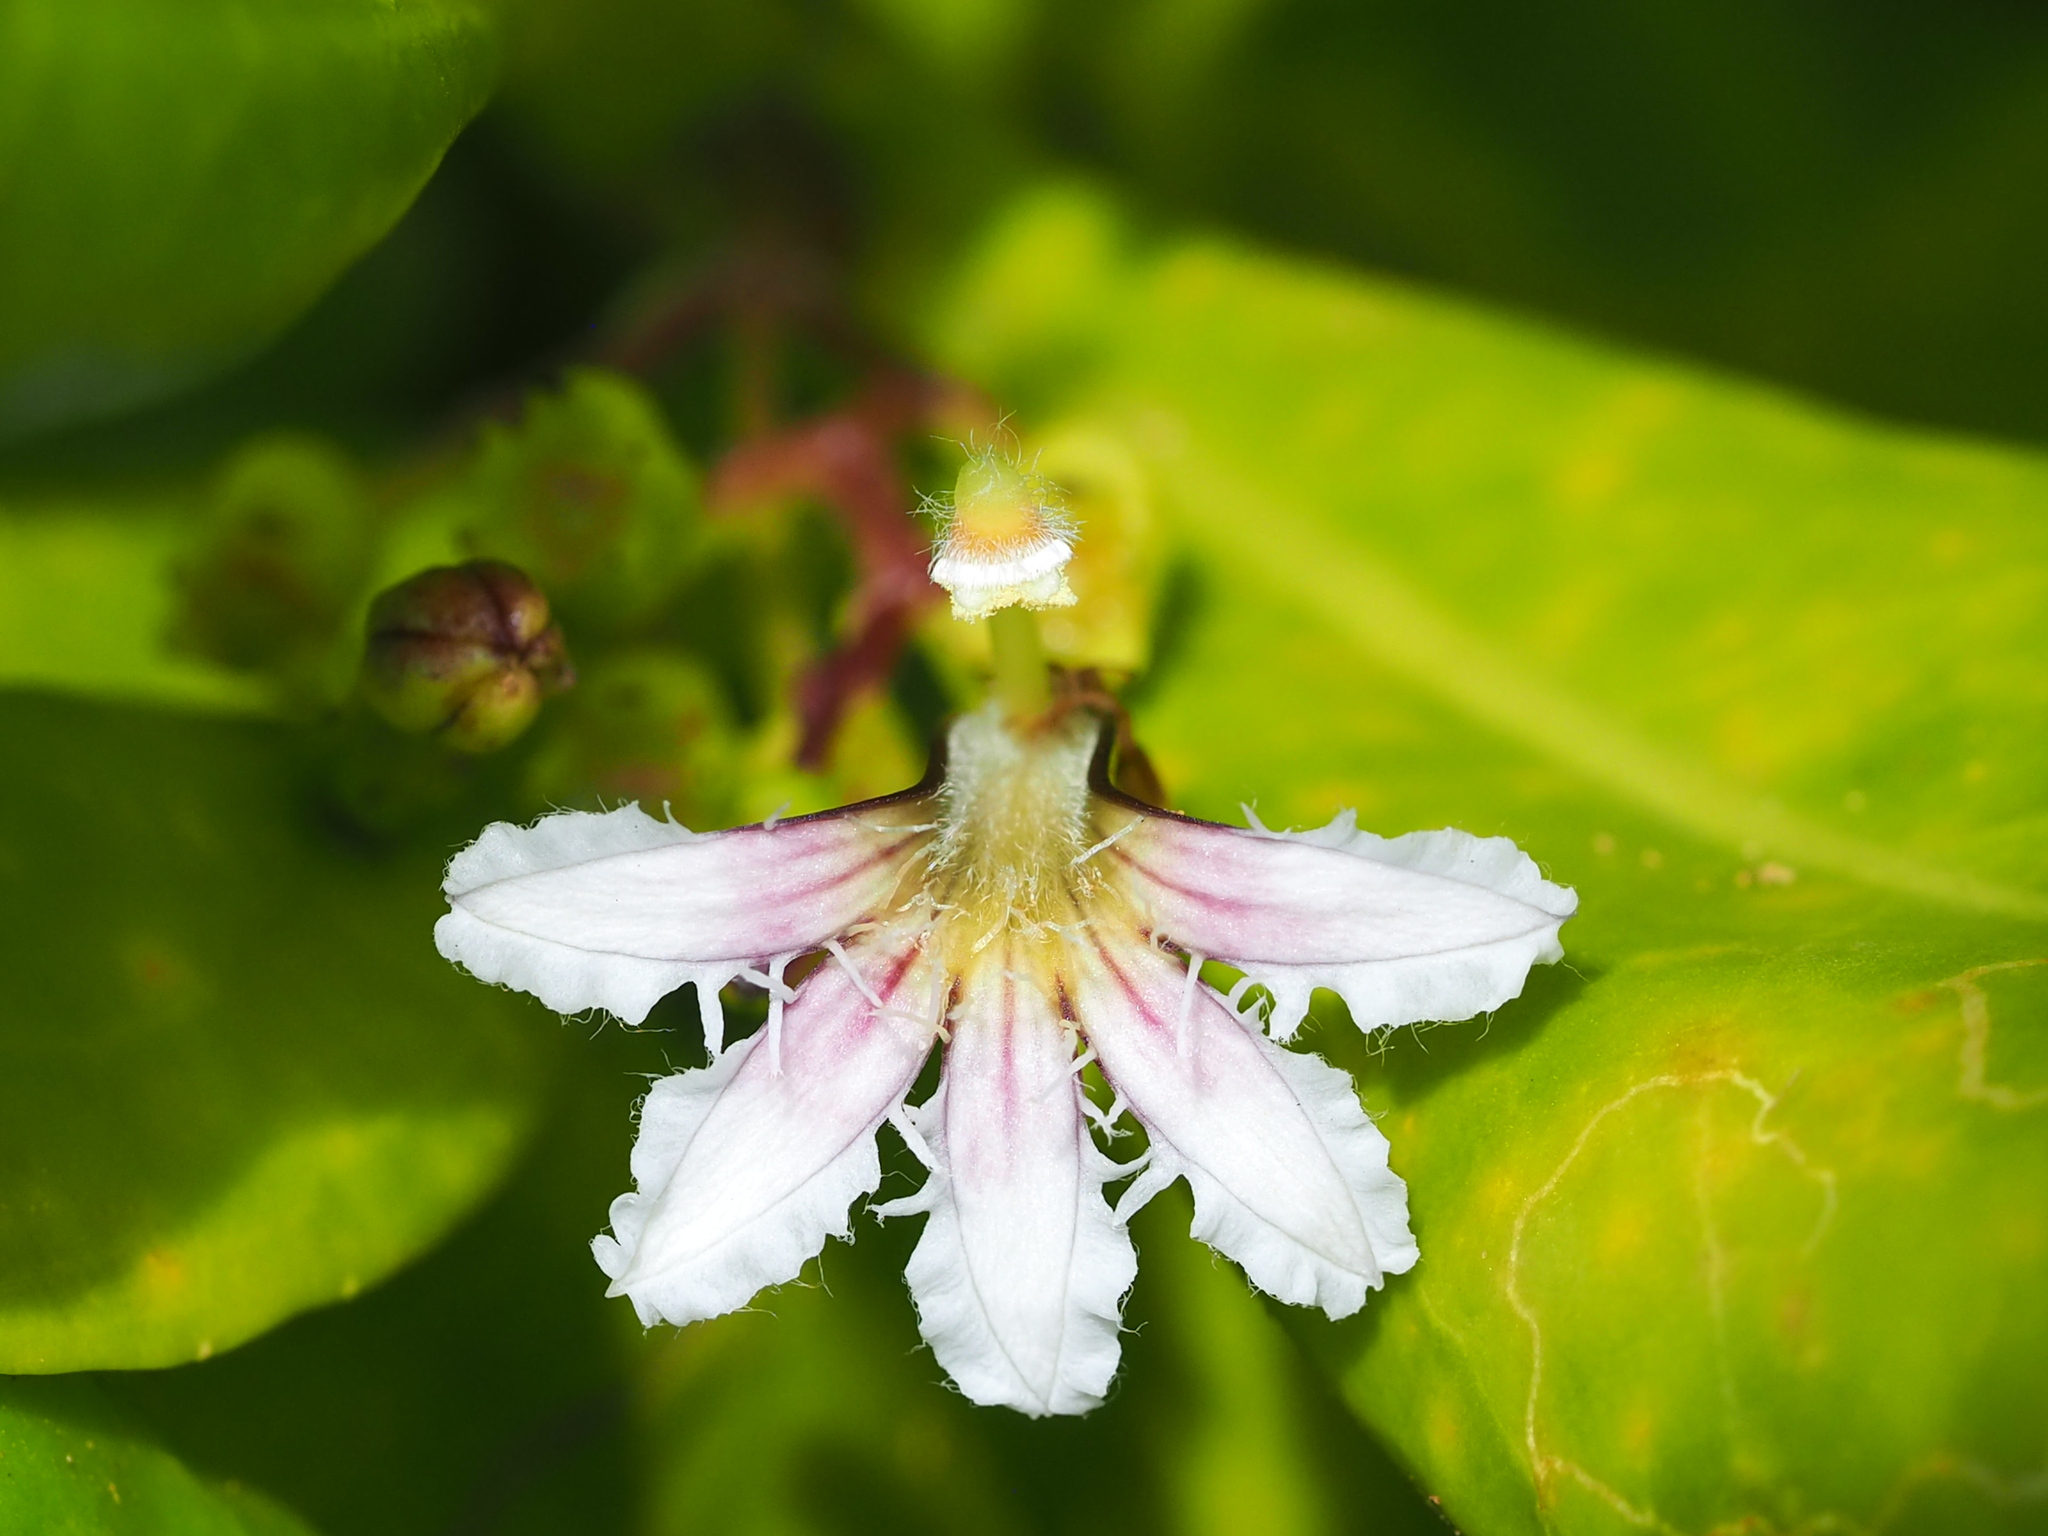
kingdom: Plantae
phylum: Tracheophyta
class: Magnoliopsida
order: Asterales
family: Goodeniaceae
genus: Scaevola
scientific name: Scaevola taccada
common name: Sea lettucetree
